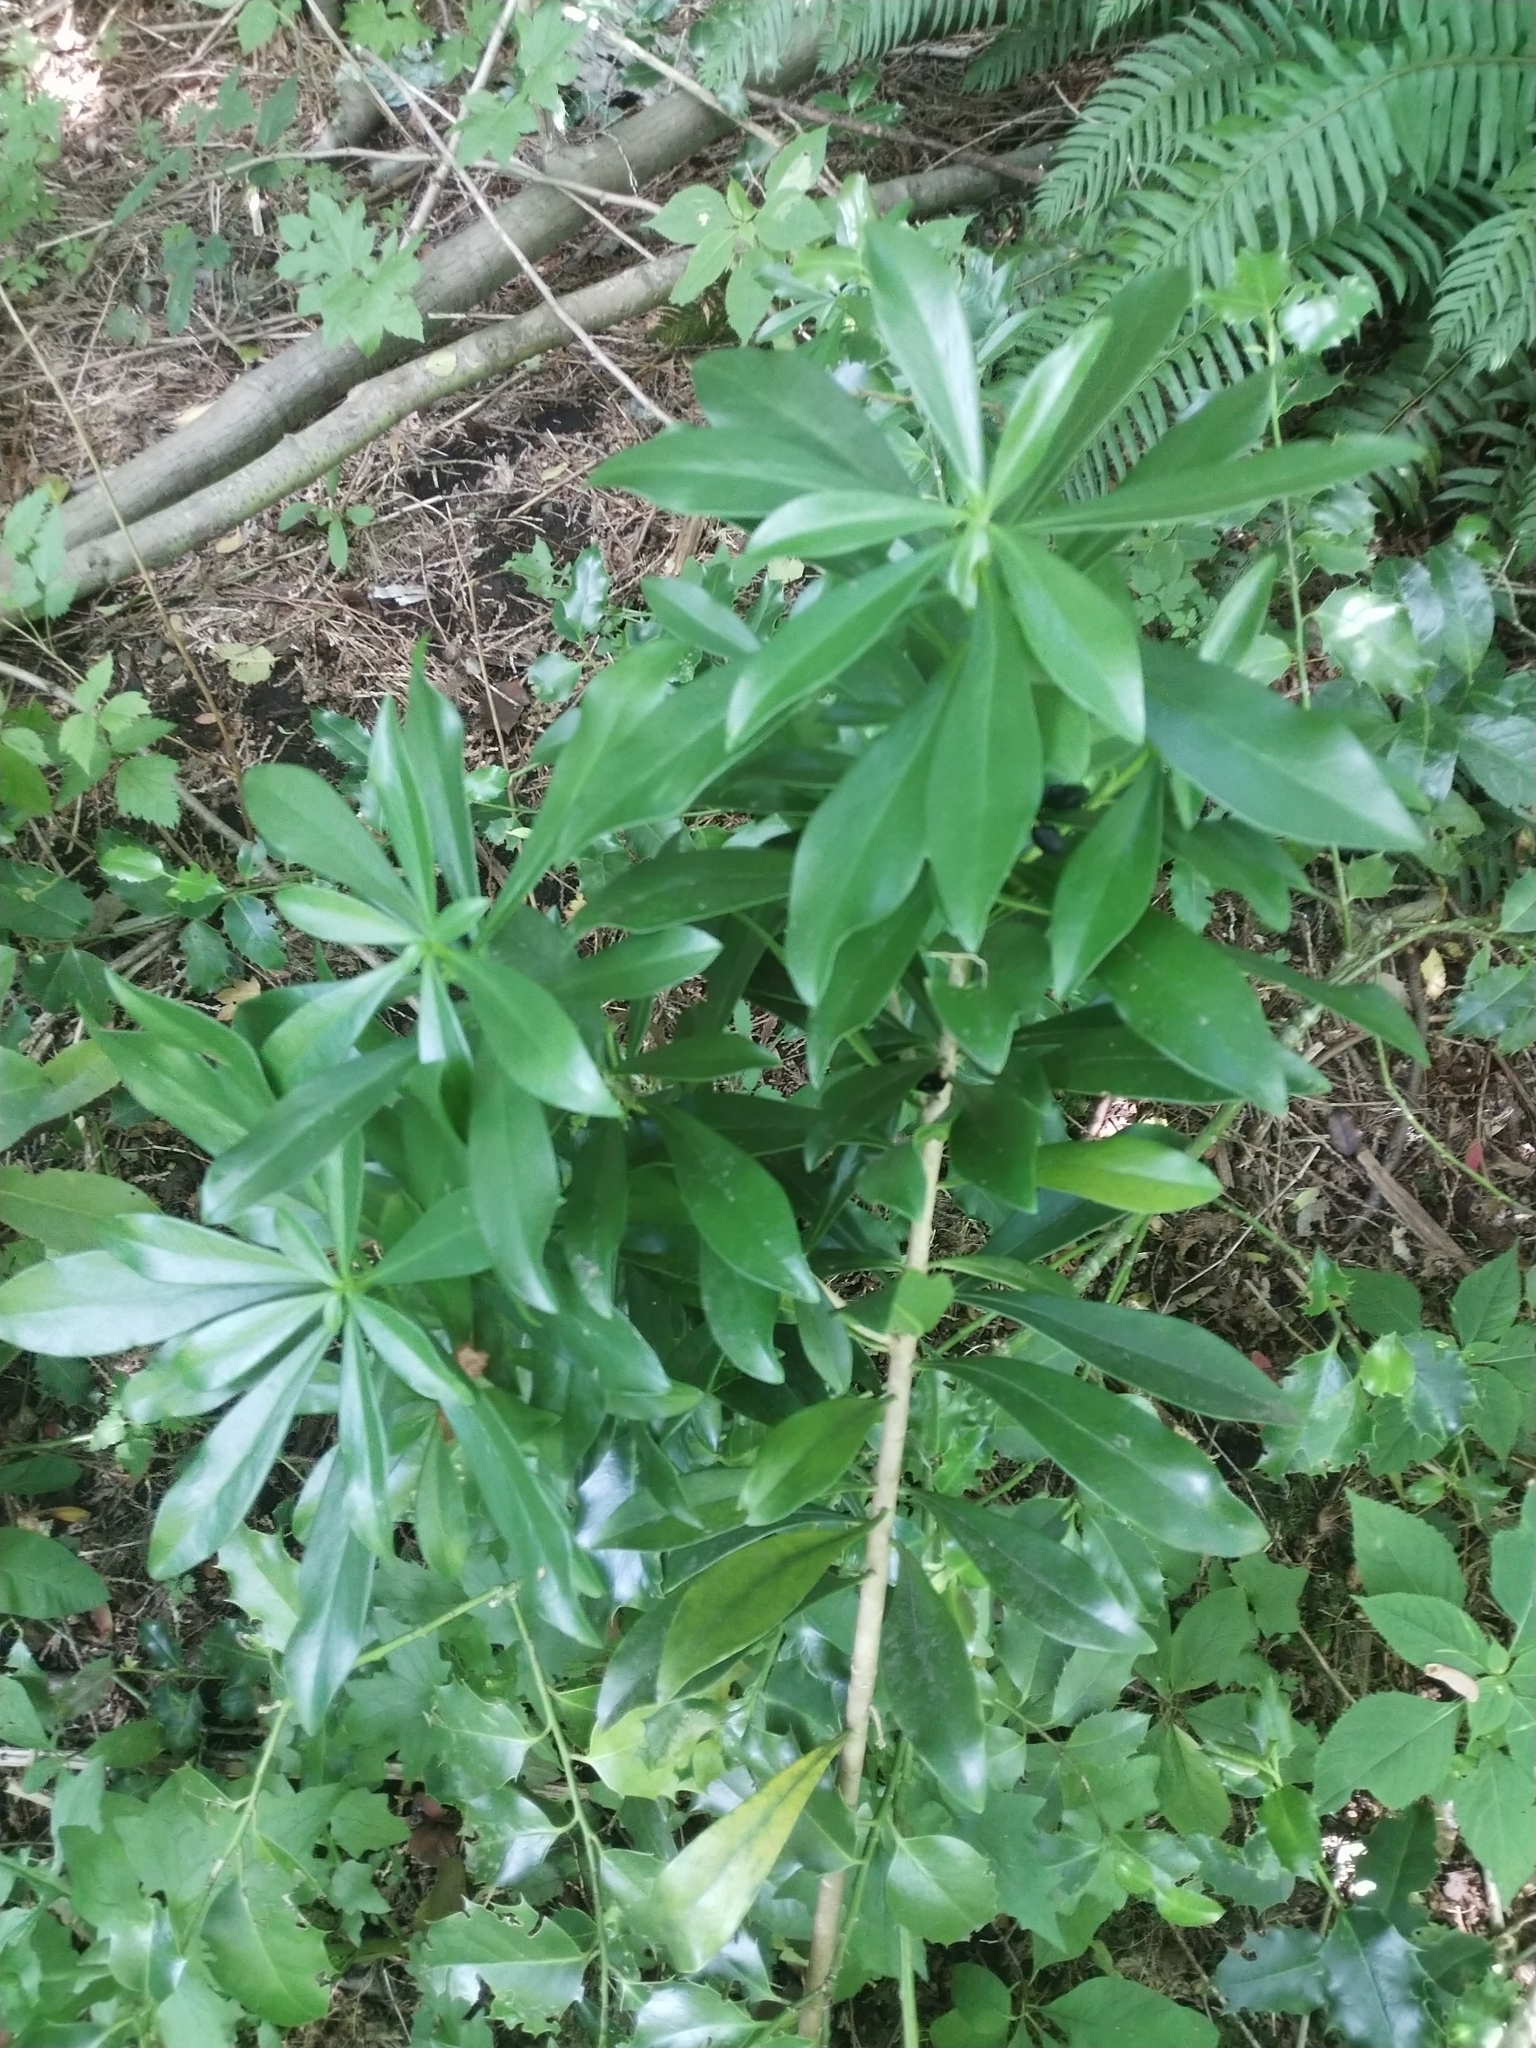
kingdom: Plantae
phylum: Tracheophyta
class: Magnoliopsida
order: Malvales
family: Thymelaeaceae
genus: Daphne
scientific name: Daphne laureola
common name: Spurge-laurel
